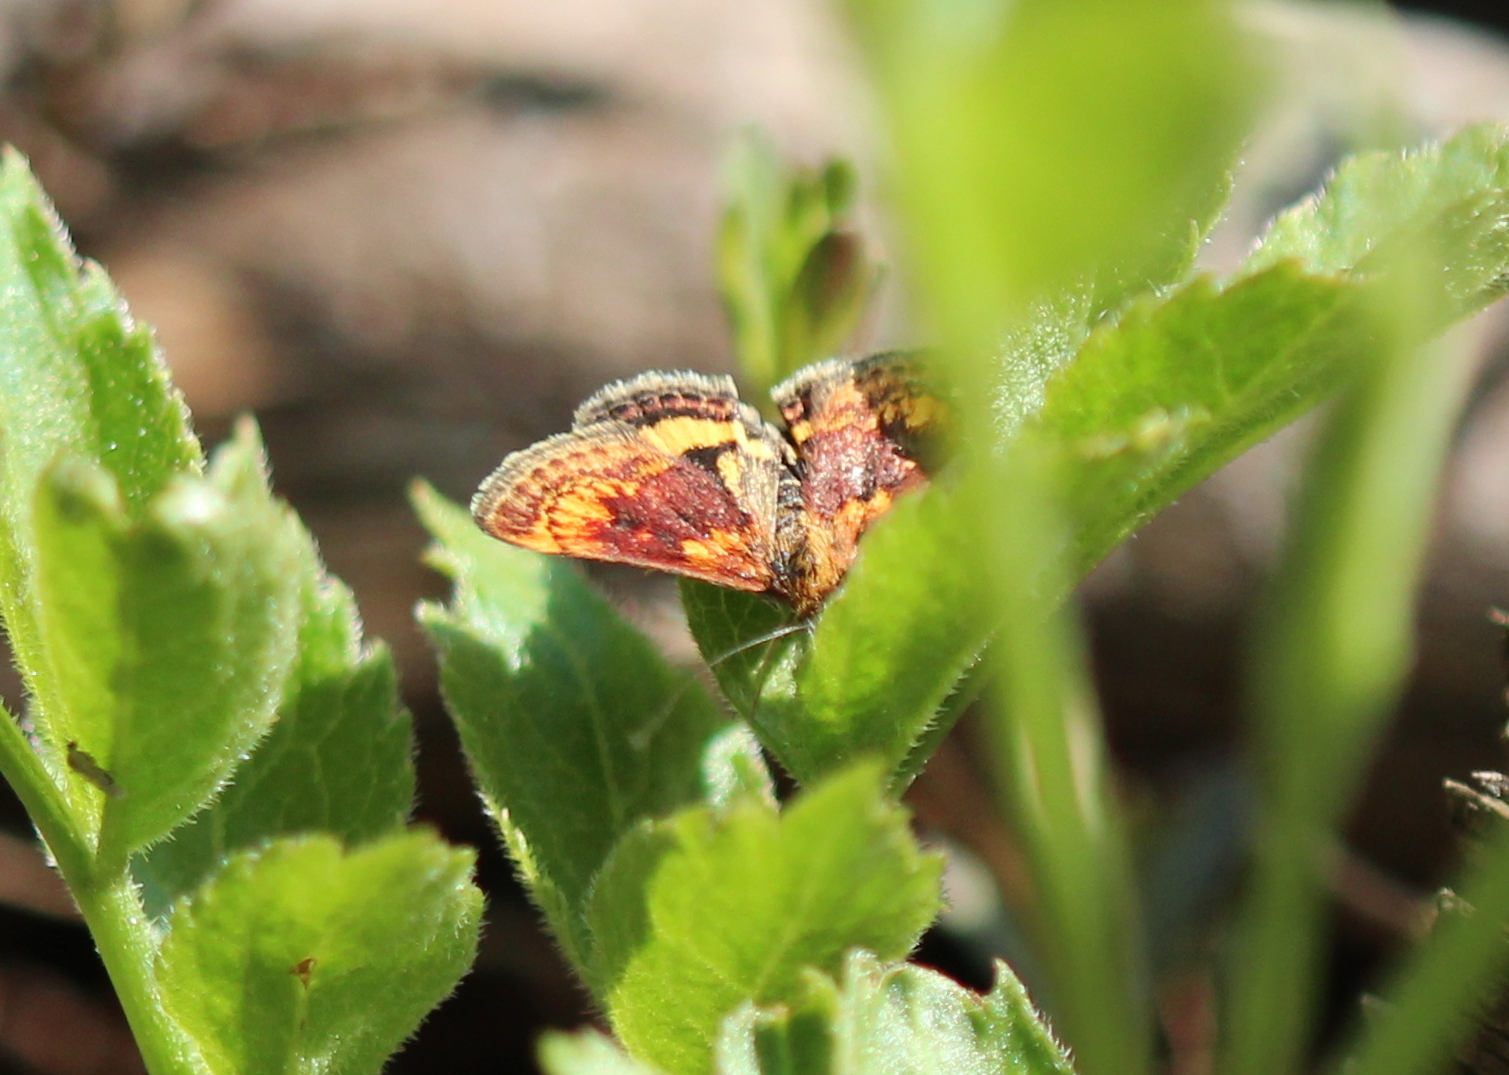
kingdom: Animalia
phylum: Arthropoda
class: Insecta
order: Lepidoptera
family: Crambidae
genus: Pyrausta
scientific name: Pyrausta orphisalis
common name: Orange mint moth
